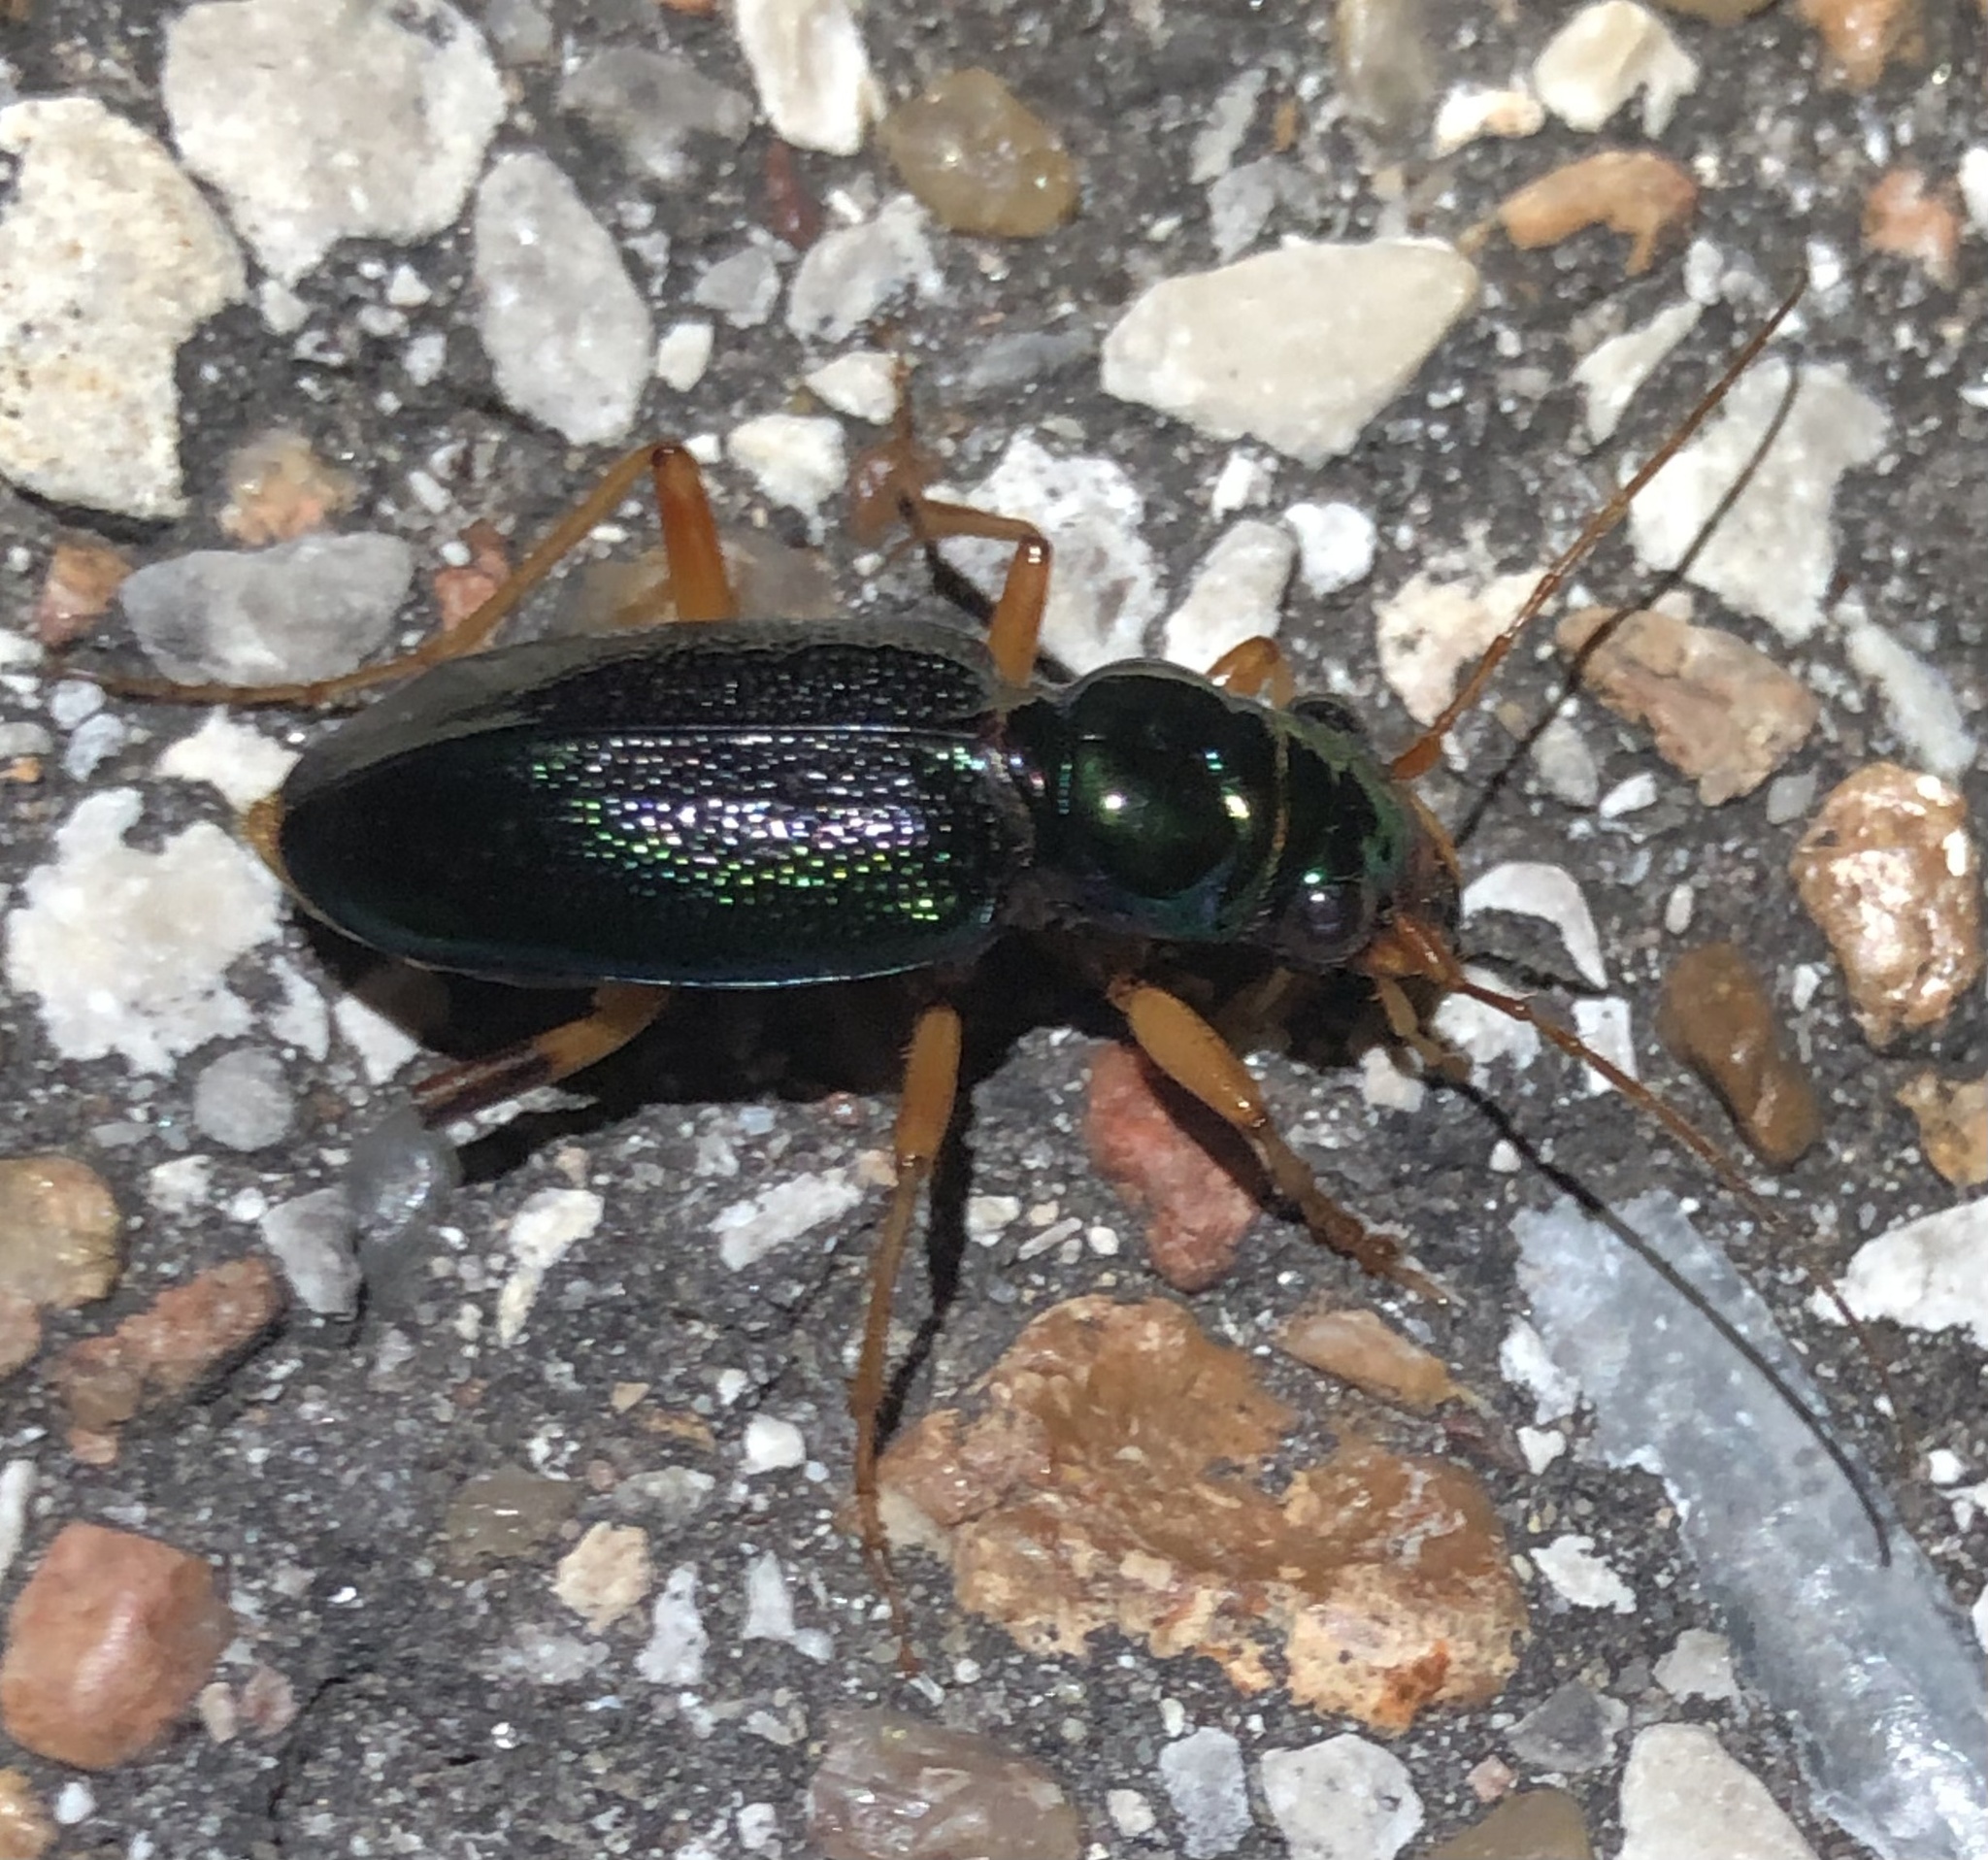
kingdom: Animalia
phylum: Arthropoda
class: Insecta
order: Coleoptera
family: Carabidae
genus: Tetracha
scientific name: Tetracha virginica
